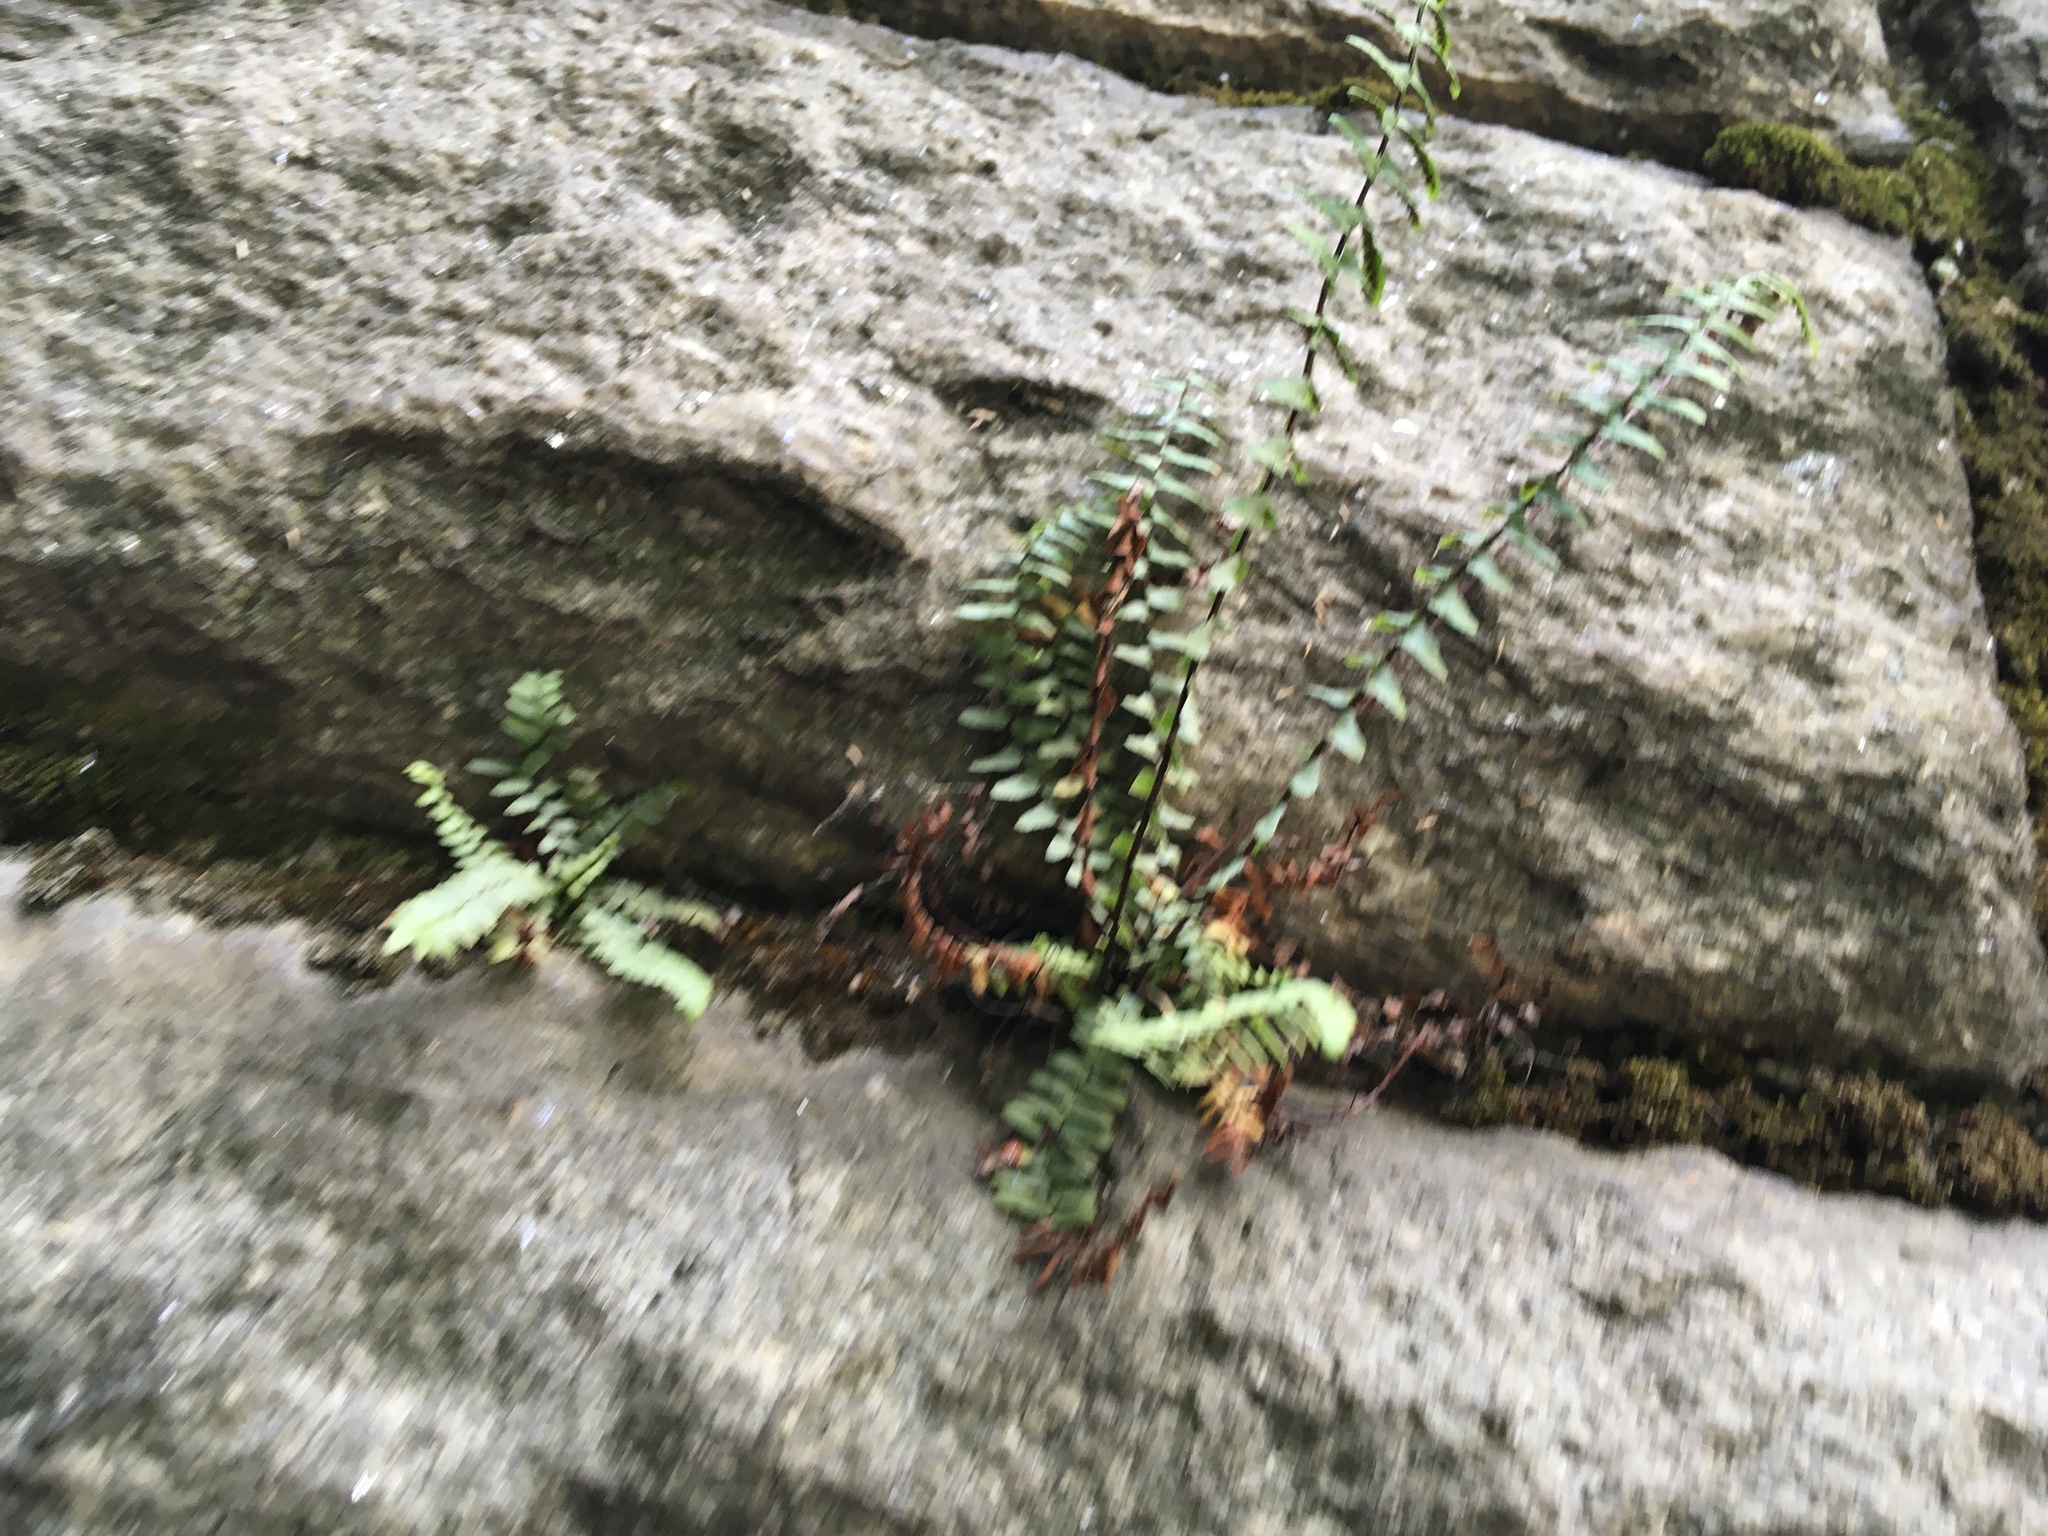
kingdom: Plantae
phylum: Tracheophyta
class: Polypodiopsida
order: Polypodiales
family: Aspleniaceae
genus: Asplenium
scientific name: Asplenium platyneuron
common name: Ebony spleenwort
